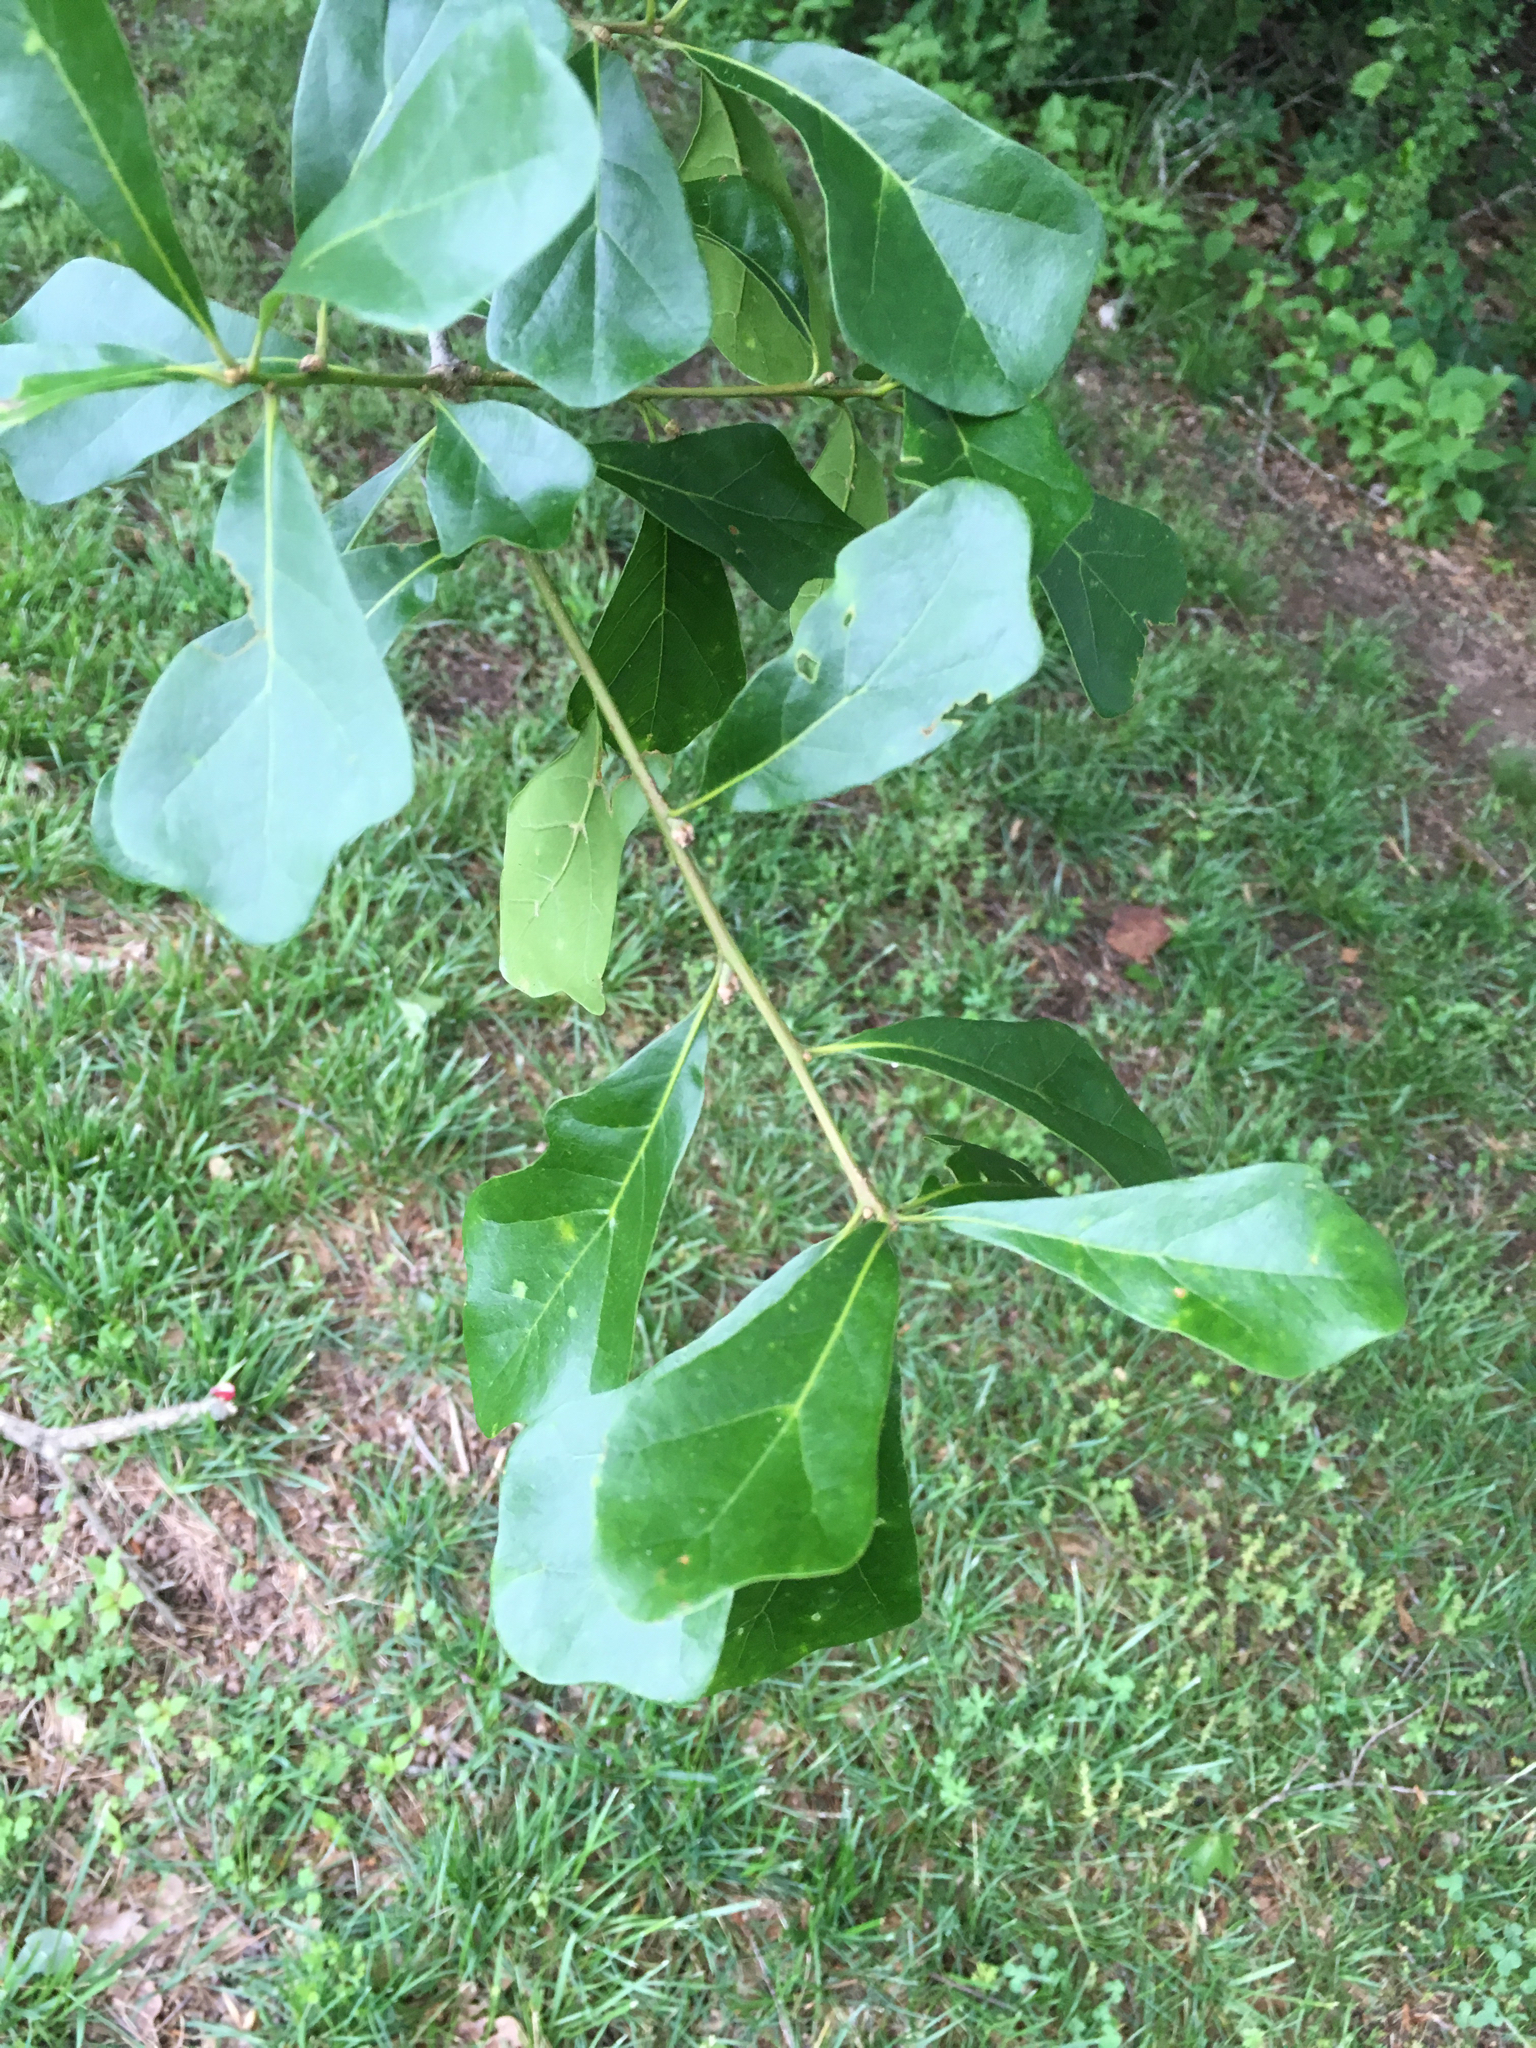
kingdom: Plantae
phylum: Tracheophyta
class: Magnoliopsida
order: Fagales
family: Fagaceae
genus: Quercus
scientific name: Quercus nigra
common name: Water oak
